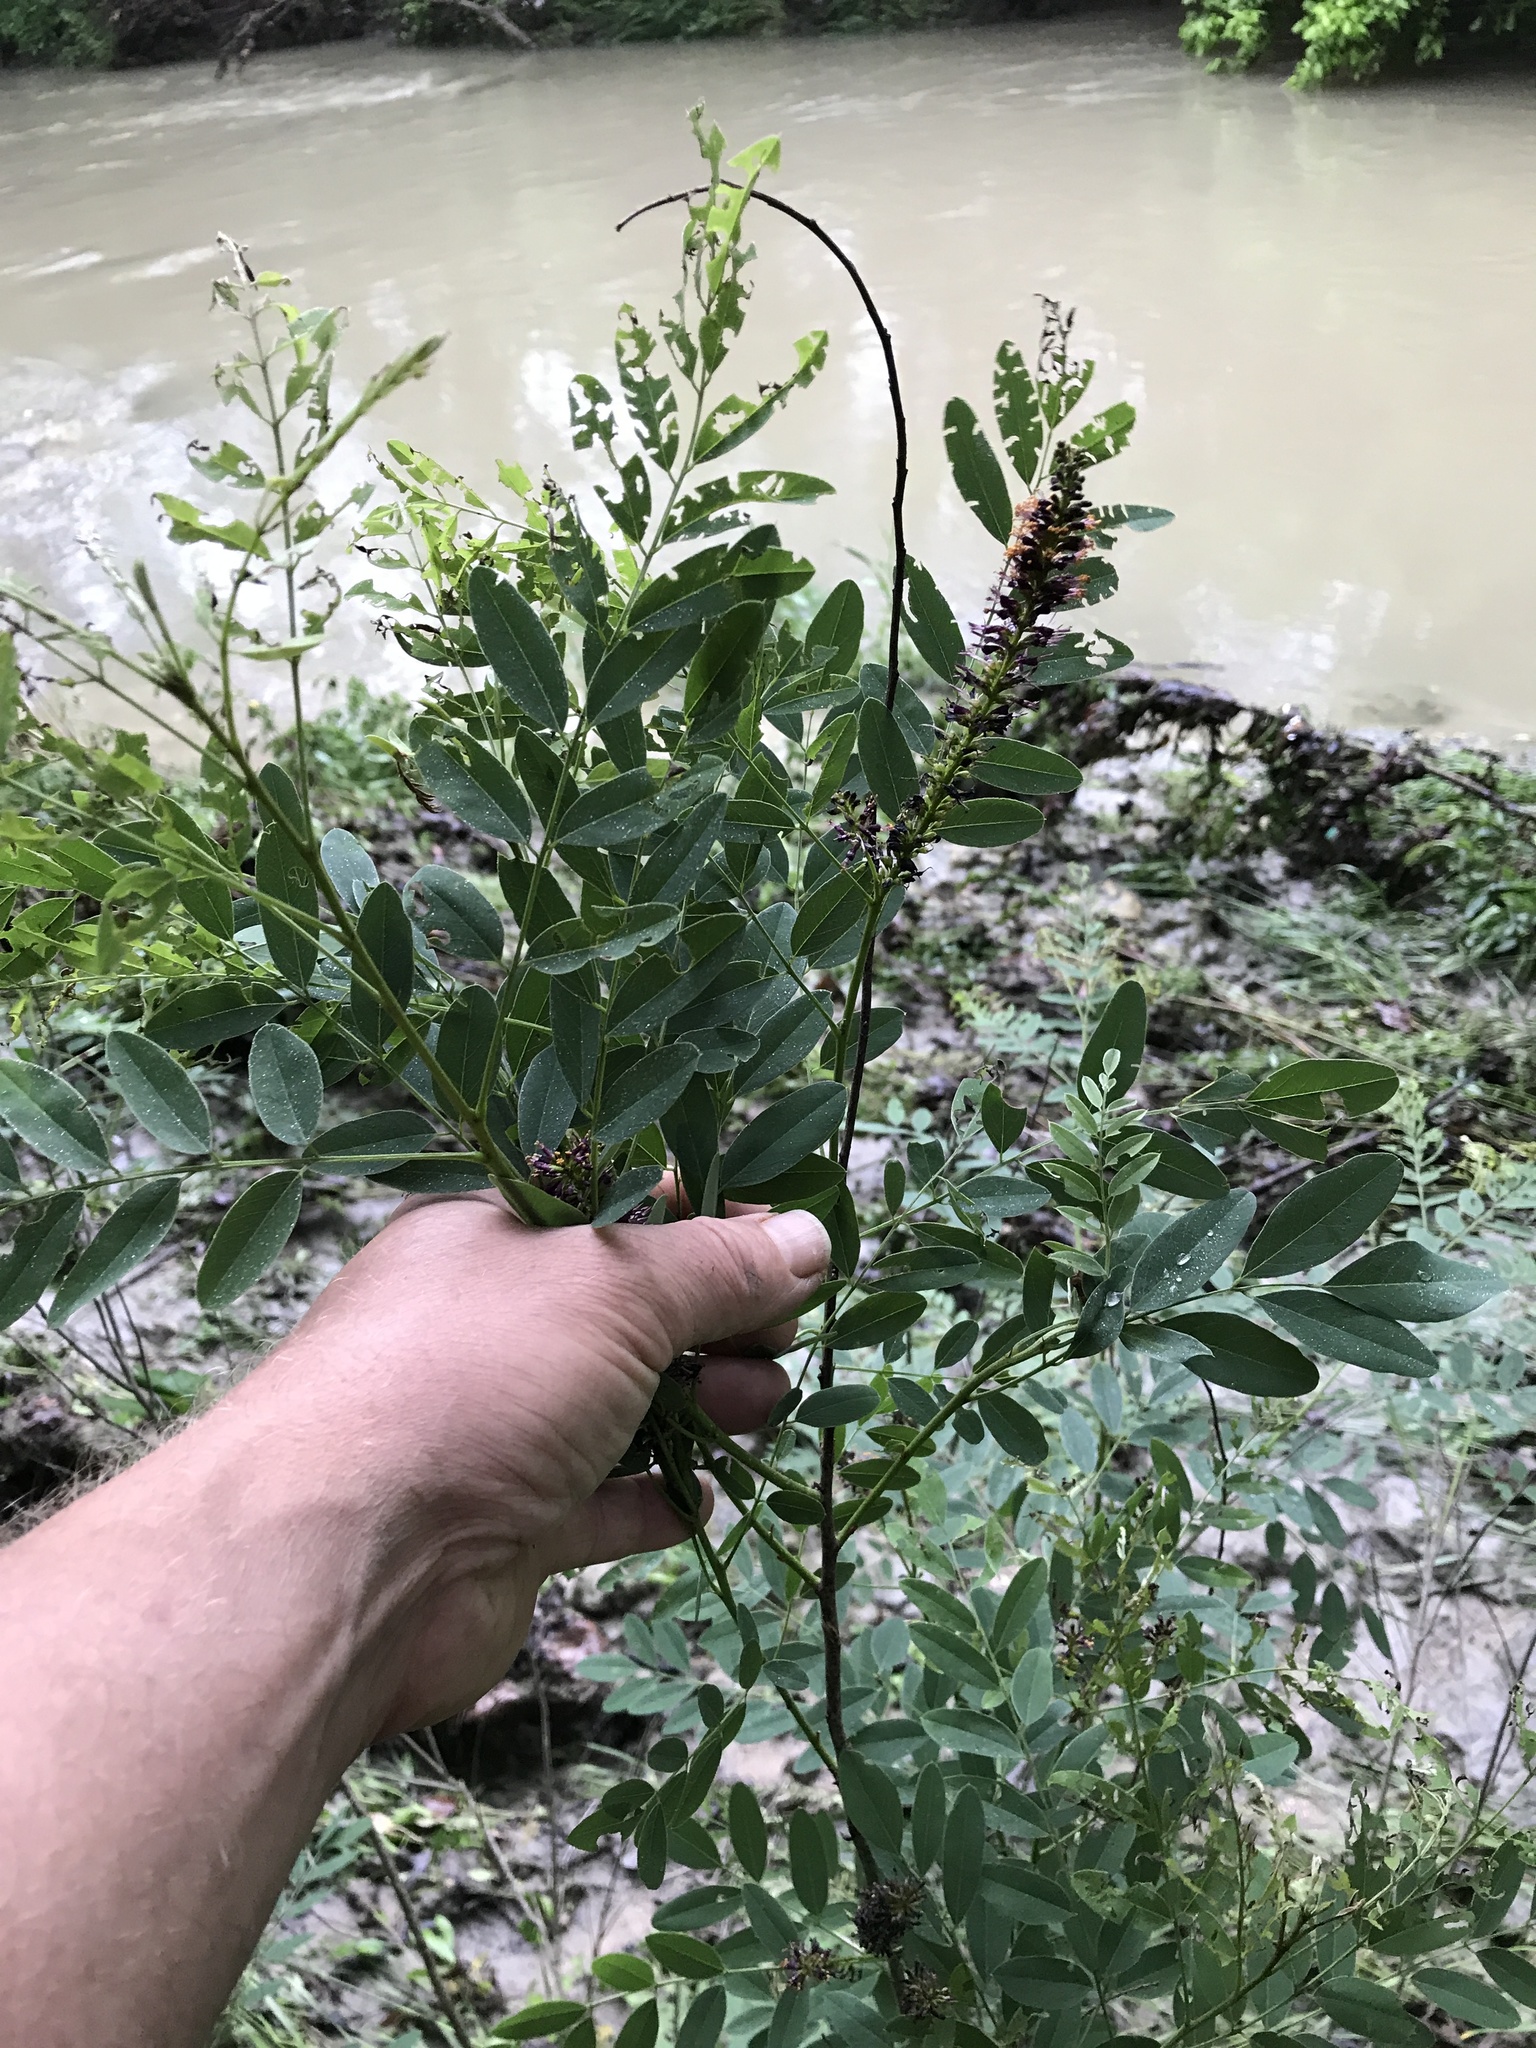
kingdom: Plantae
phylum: Tracheophyta
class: Magnoliopsida
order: Fabales
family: Fabaceae
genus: Amorpha
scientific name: Amorpha fruticosa
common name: False indigo
